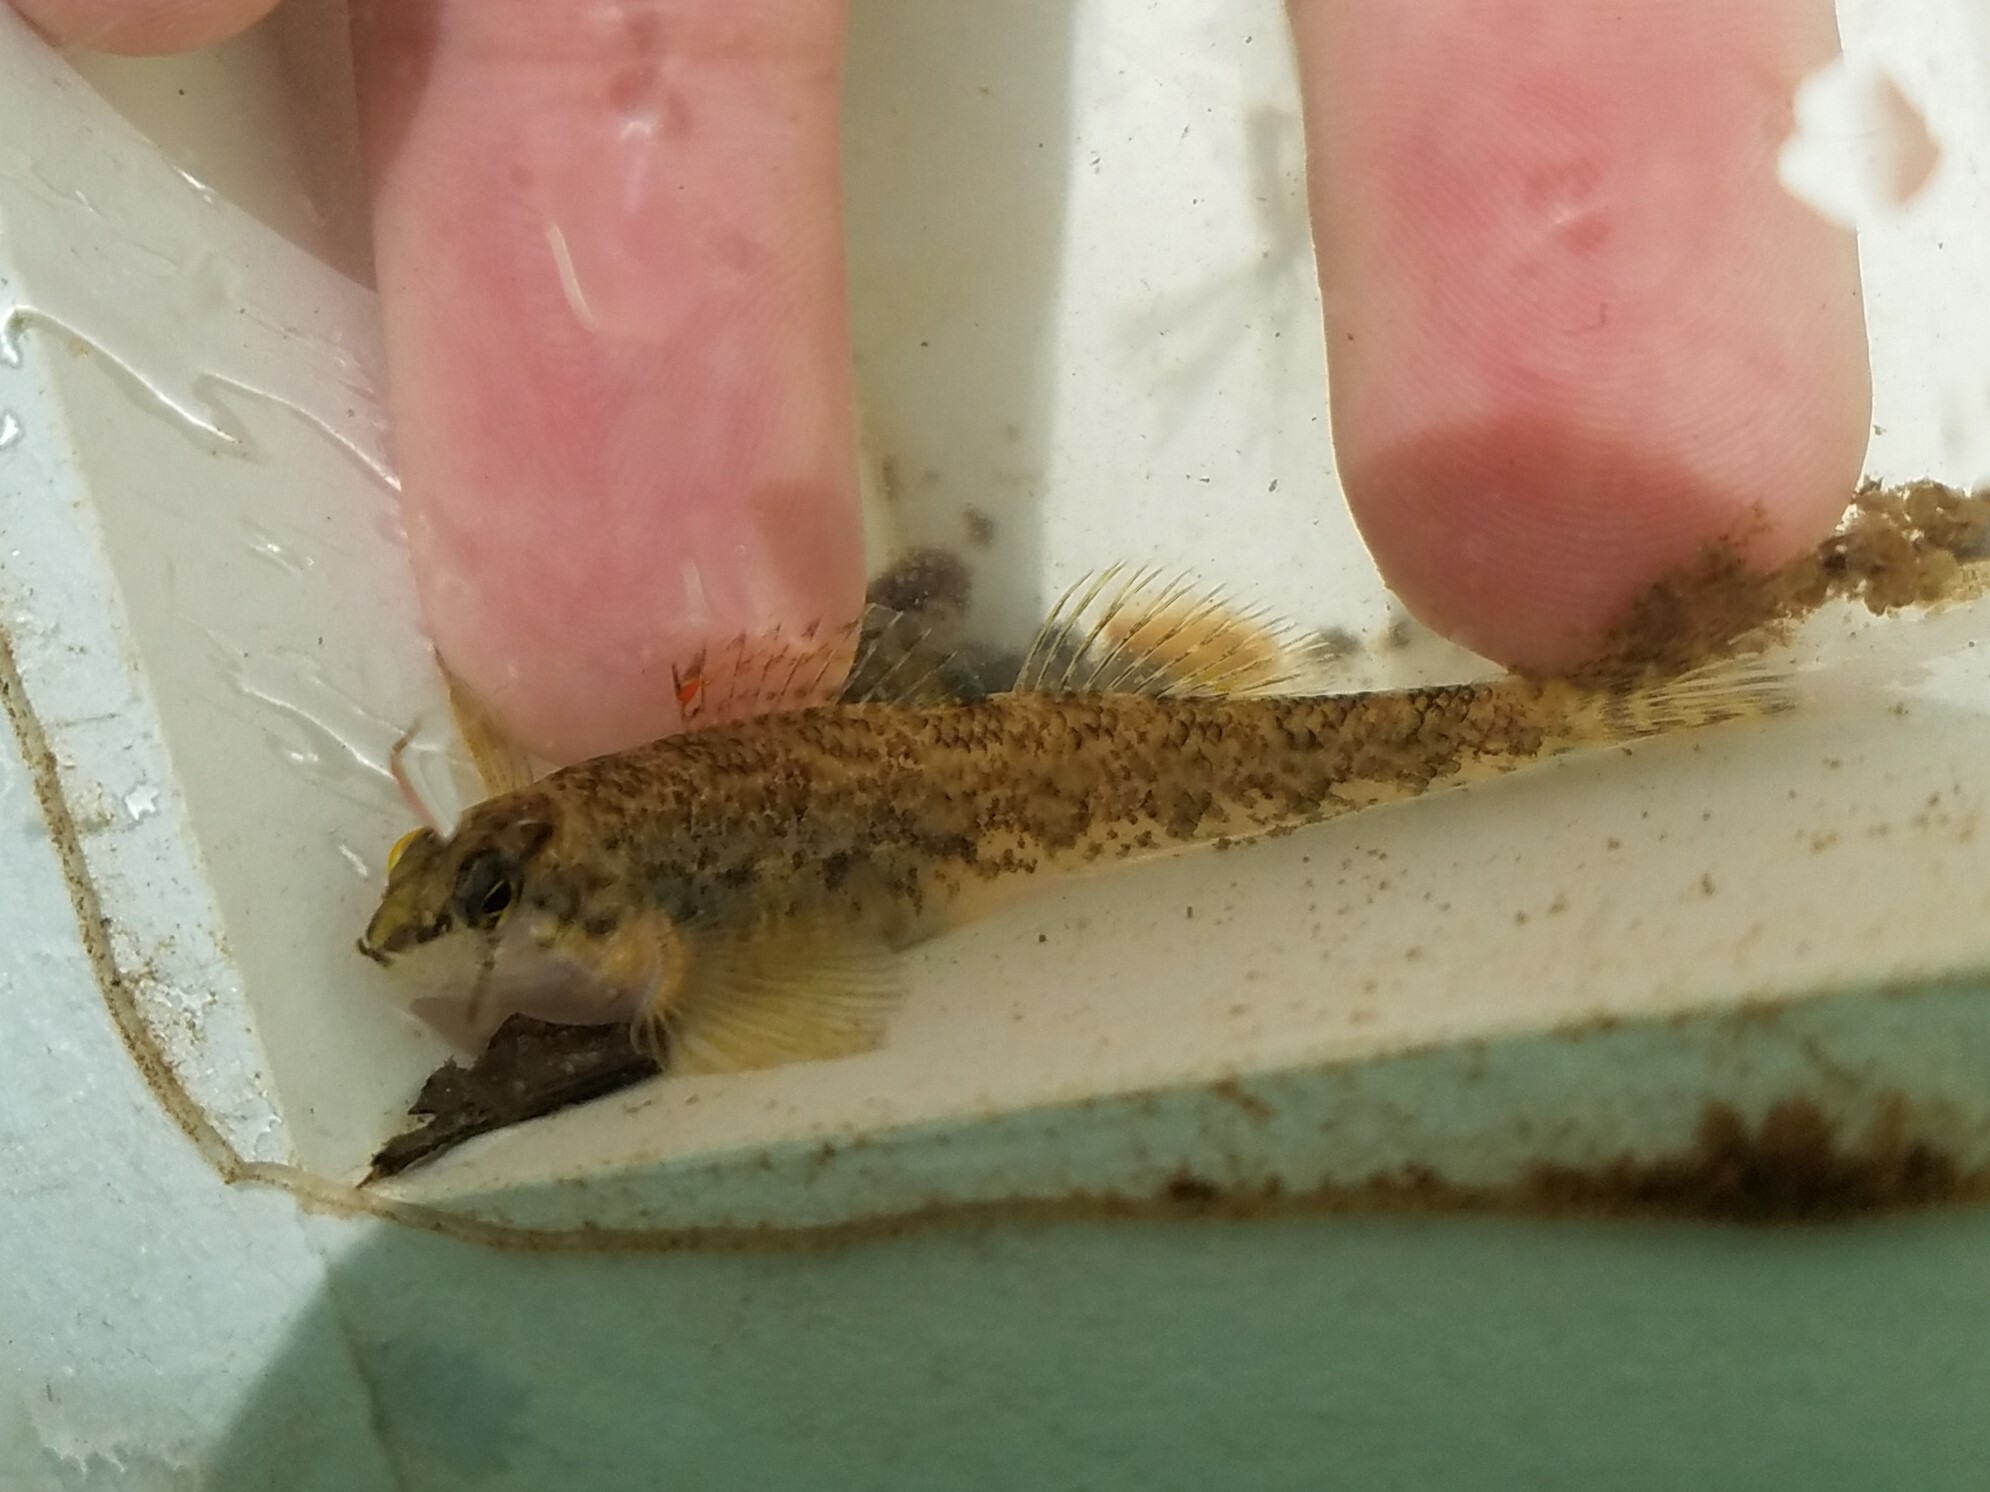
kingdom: Animalia
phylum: Chordata
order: Perciformes
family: Percidae
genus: Etheostoma
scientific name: Etheostoma coosae
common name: Coosa darter
